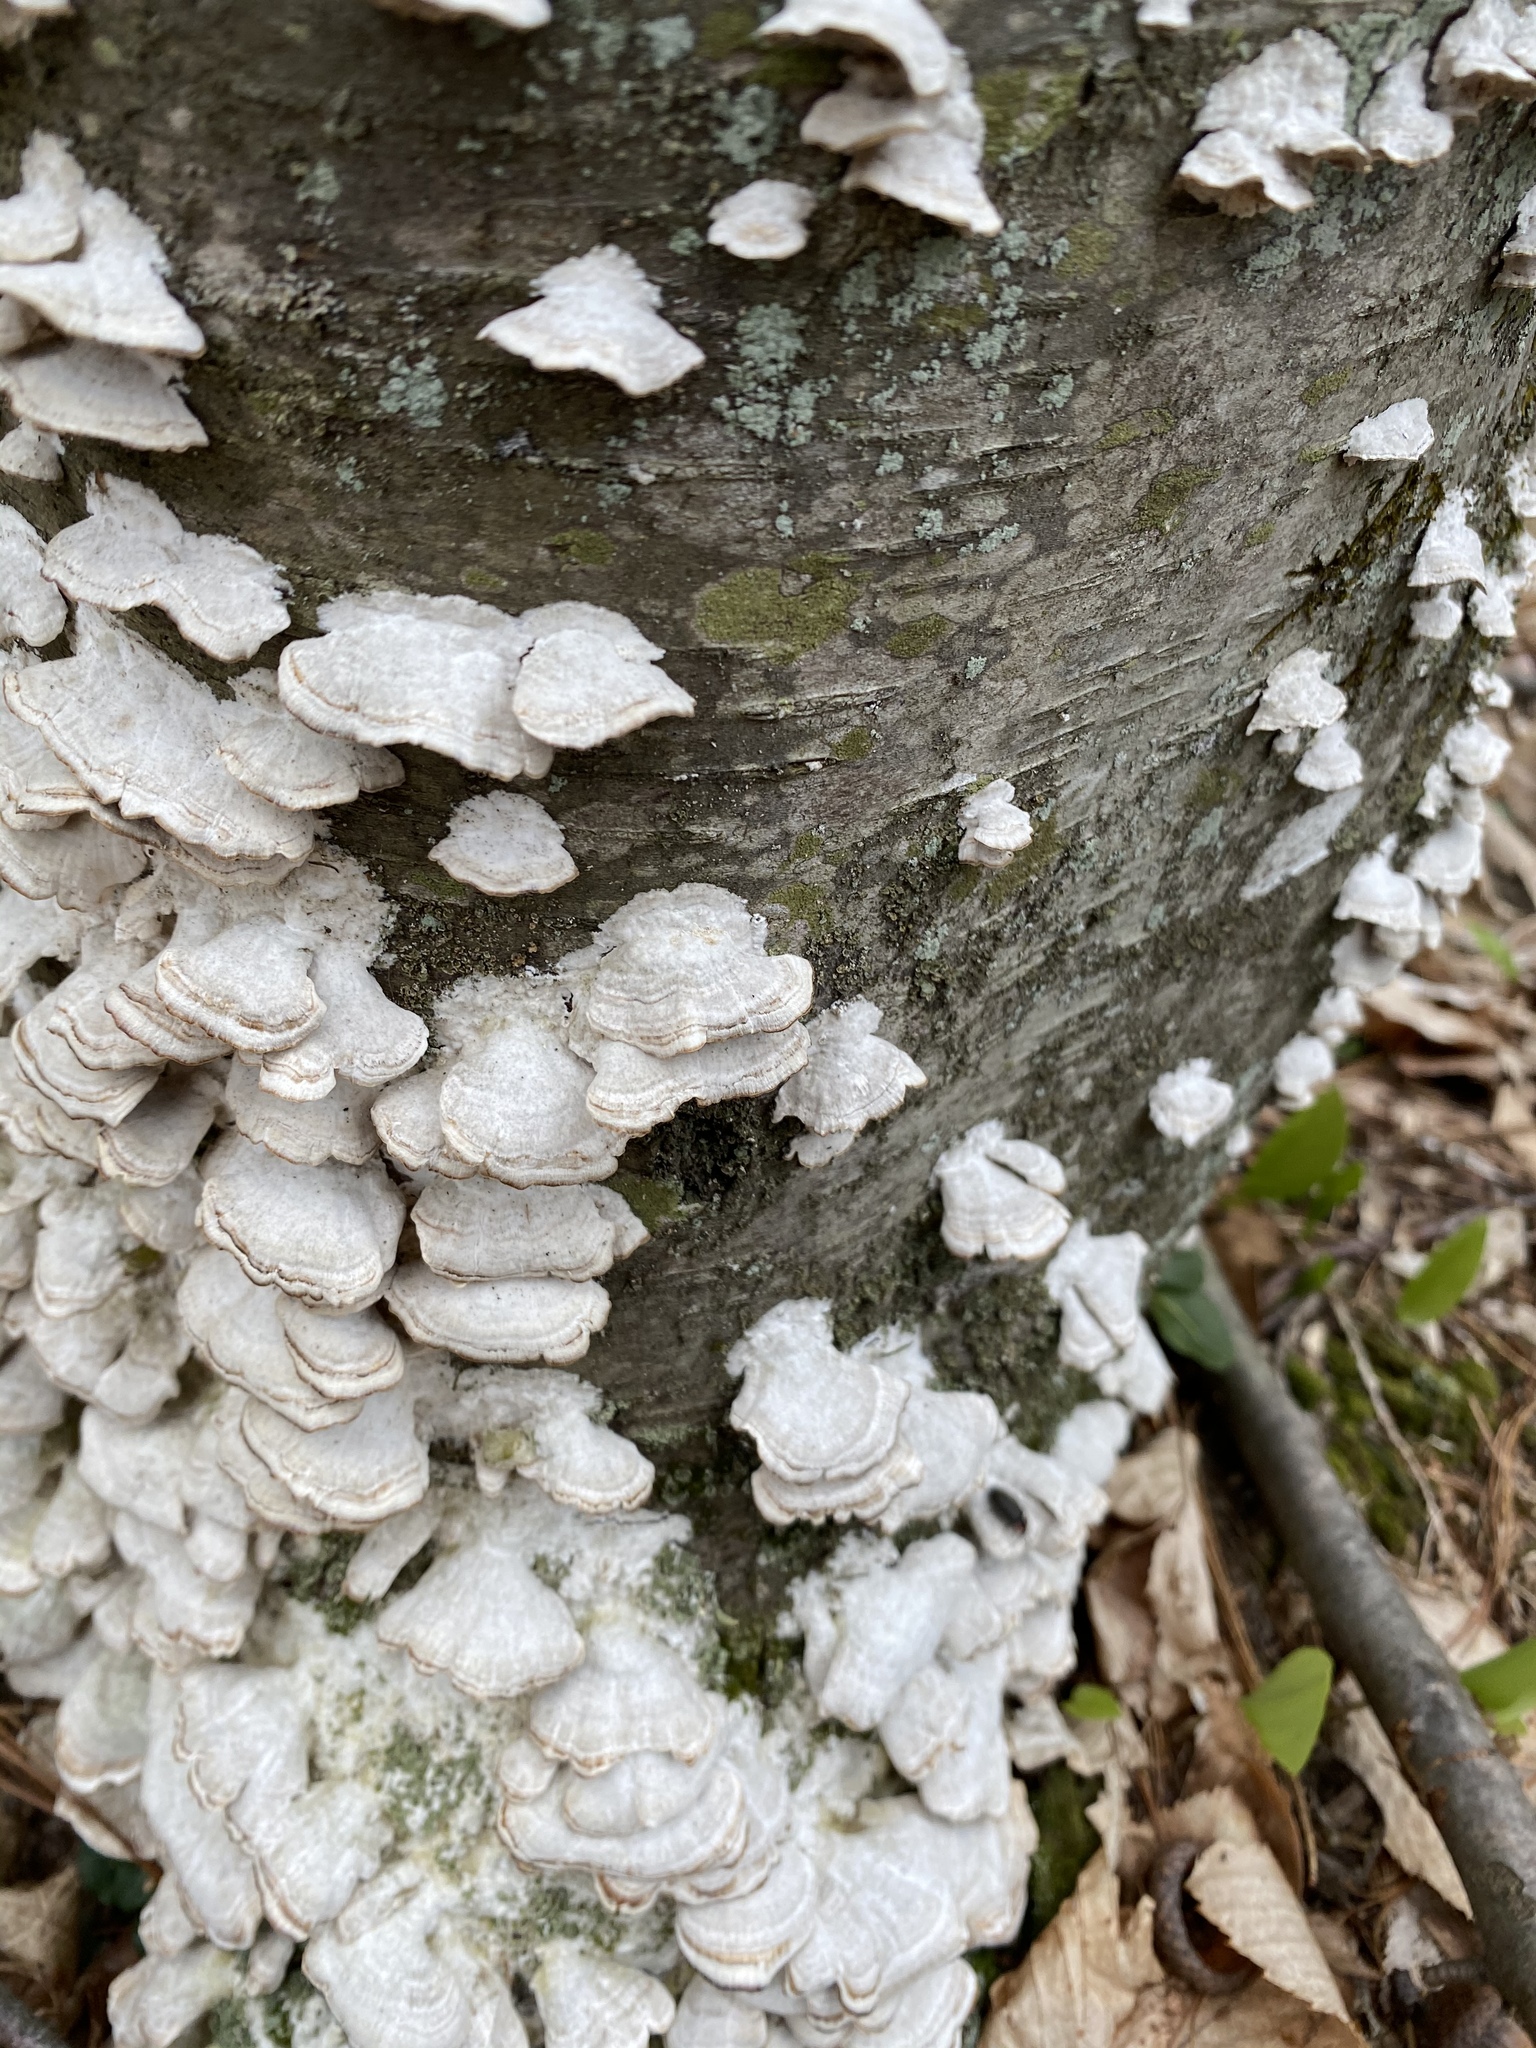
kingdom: Fungi
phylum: Basidiomycota
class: Agaricomycetes
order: Hymenochaetales
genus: Trichaptum
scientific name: Trichaptum abietinum
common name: Purplepore bracket
